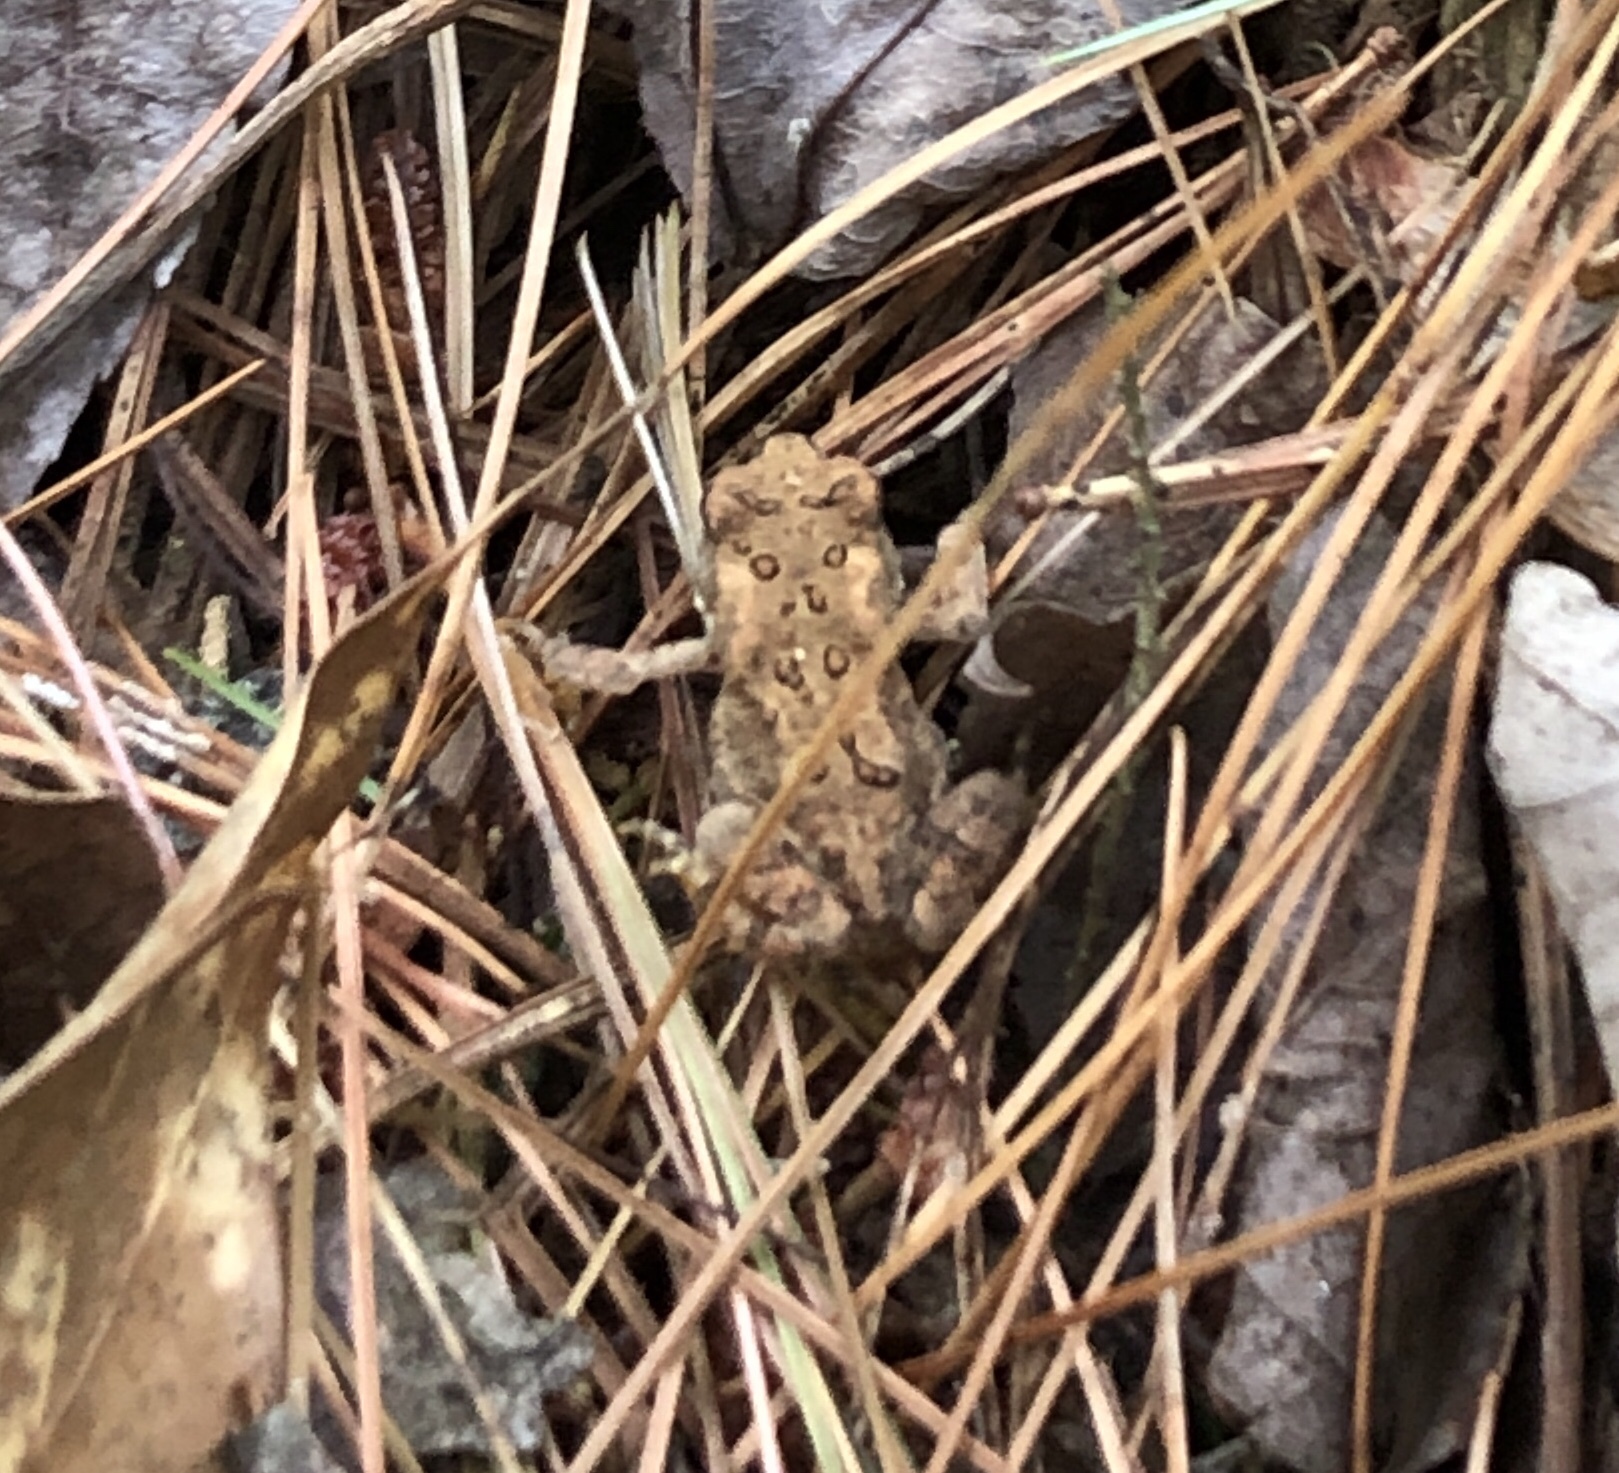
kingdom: Animalia
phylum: Chordata
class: Amphibia
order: Anura
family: Bufonidae
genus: Anaxyrus
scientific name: Anaxyrus americanus
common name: American toad
